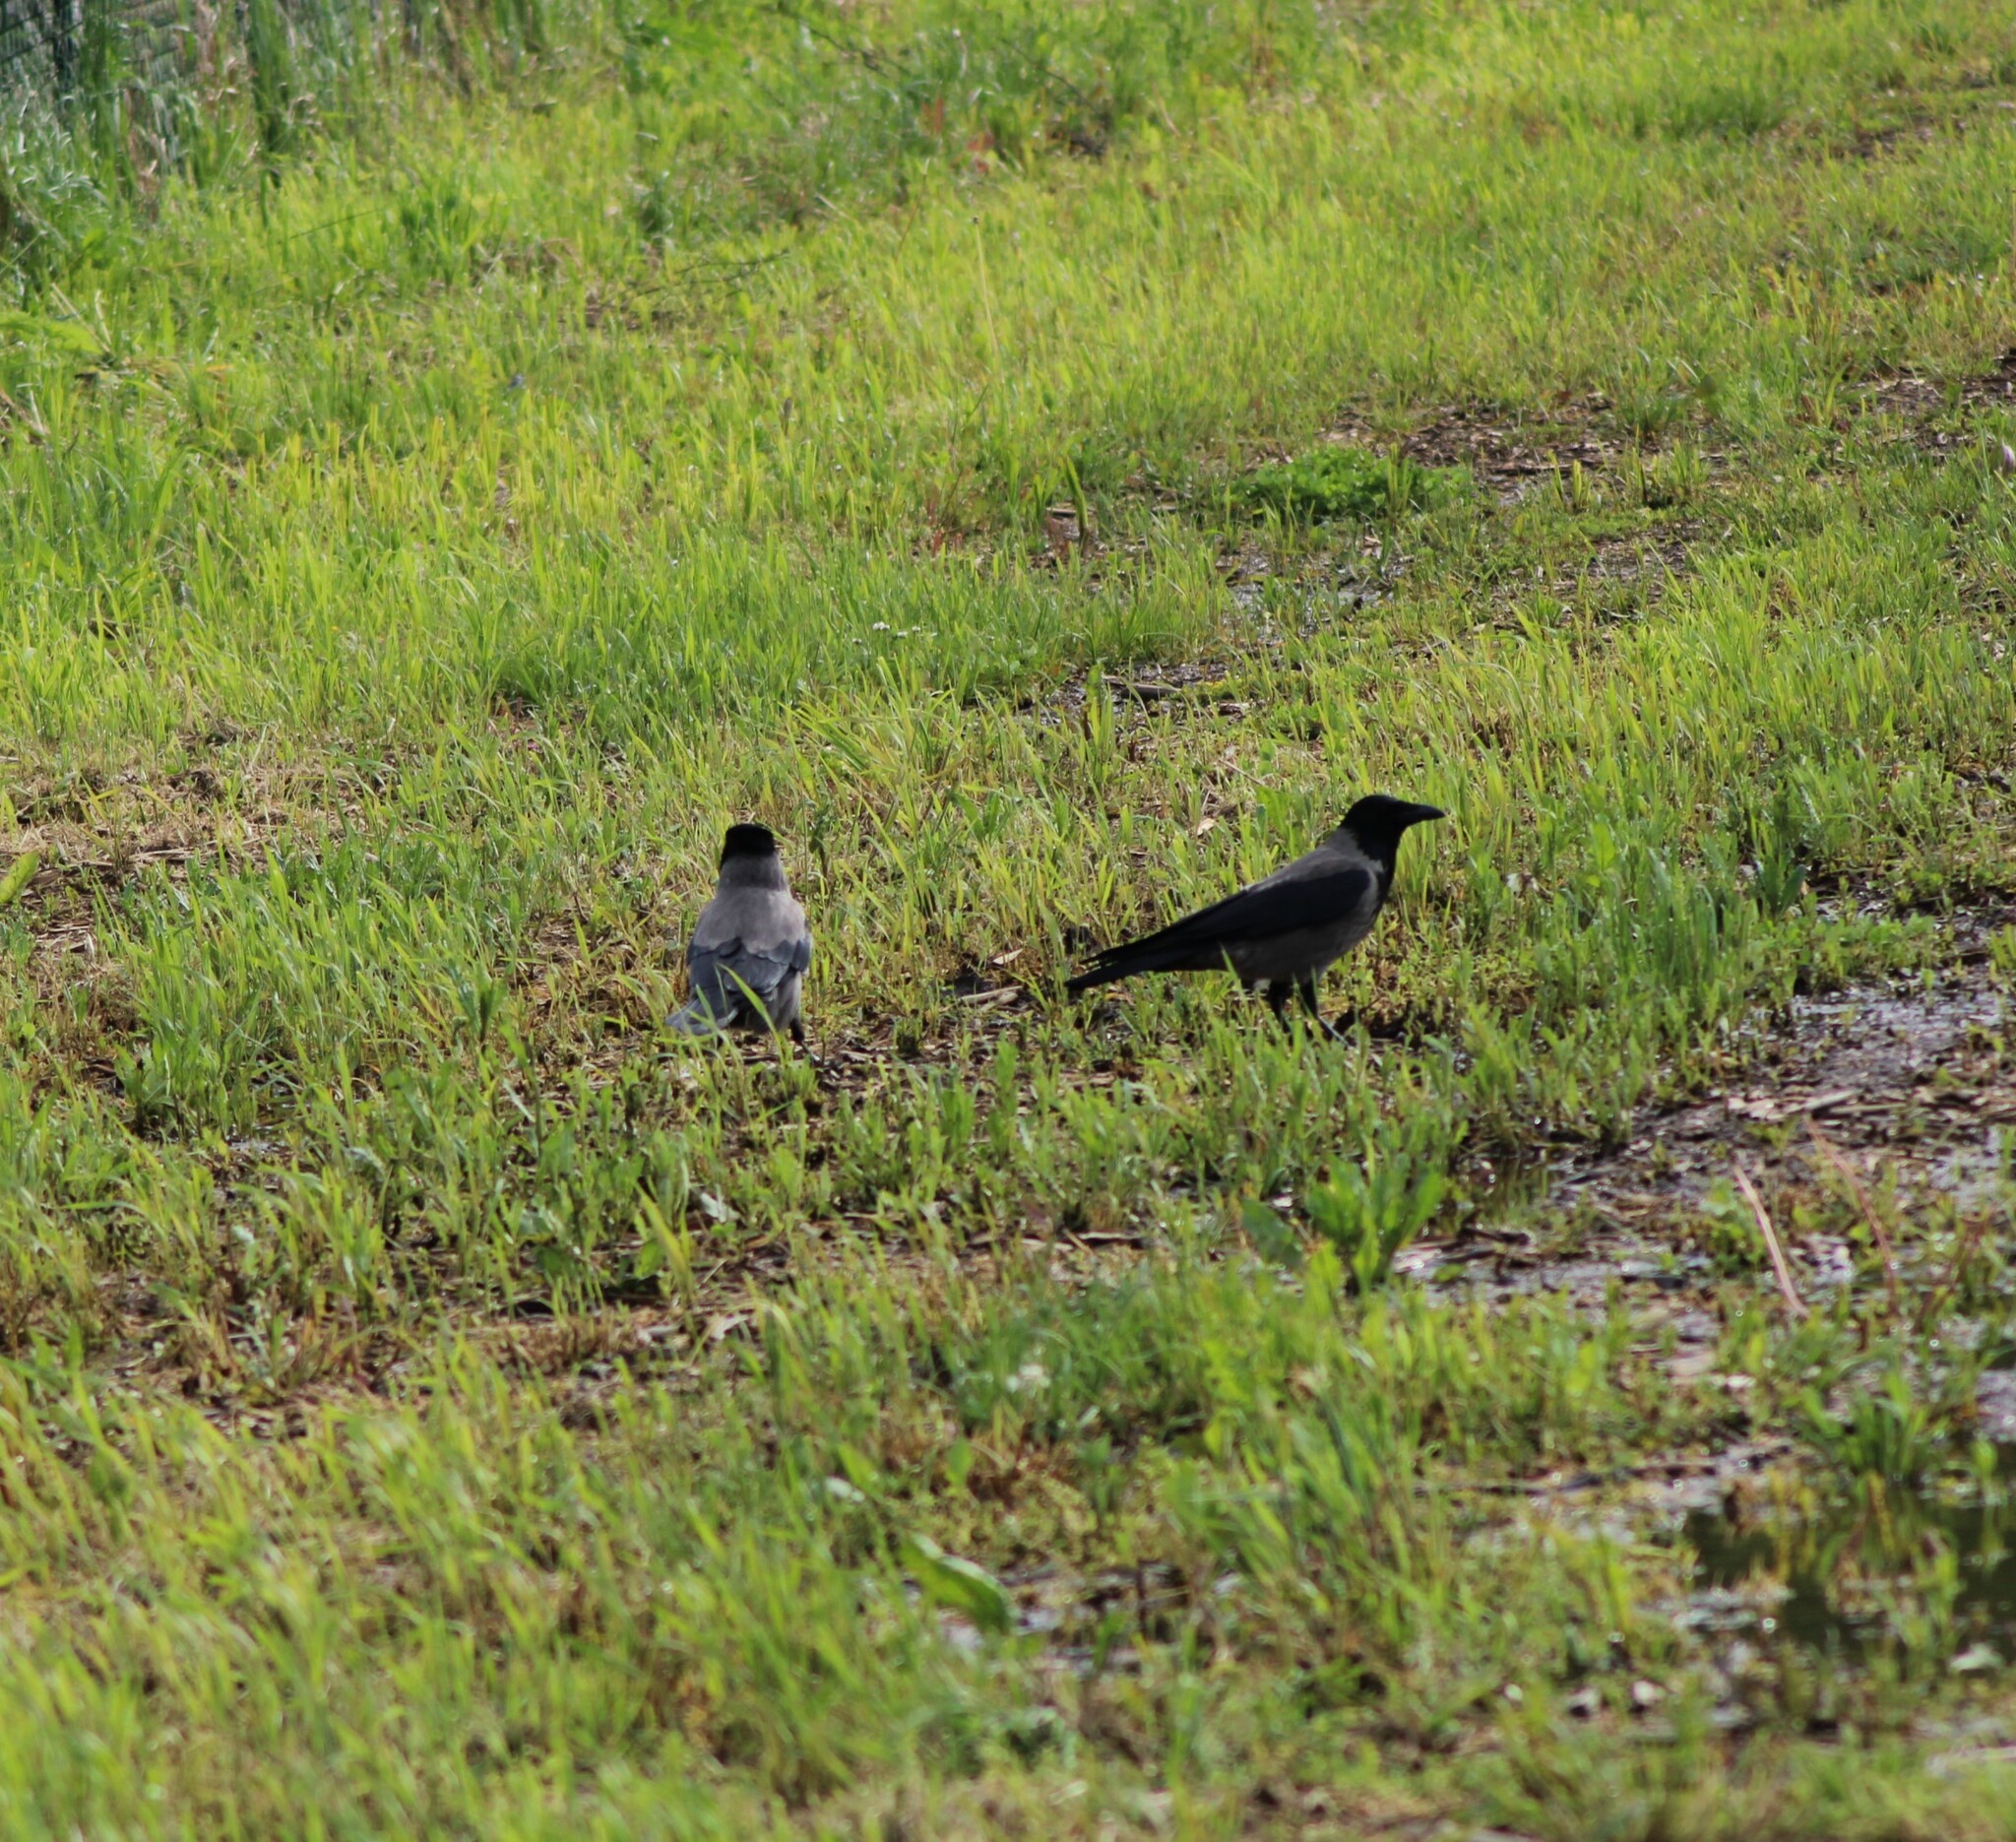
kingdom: Animalia
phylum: Chordata
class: Aves
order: Passeriformes
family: Corvidae
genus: Corvus
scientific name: Corvus cornix
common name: Hooded crow
